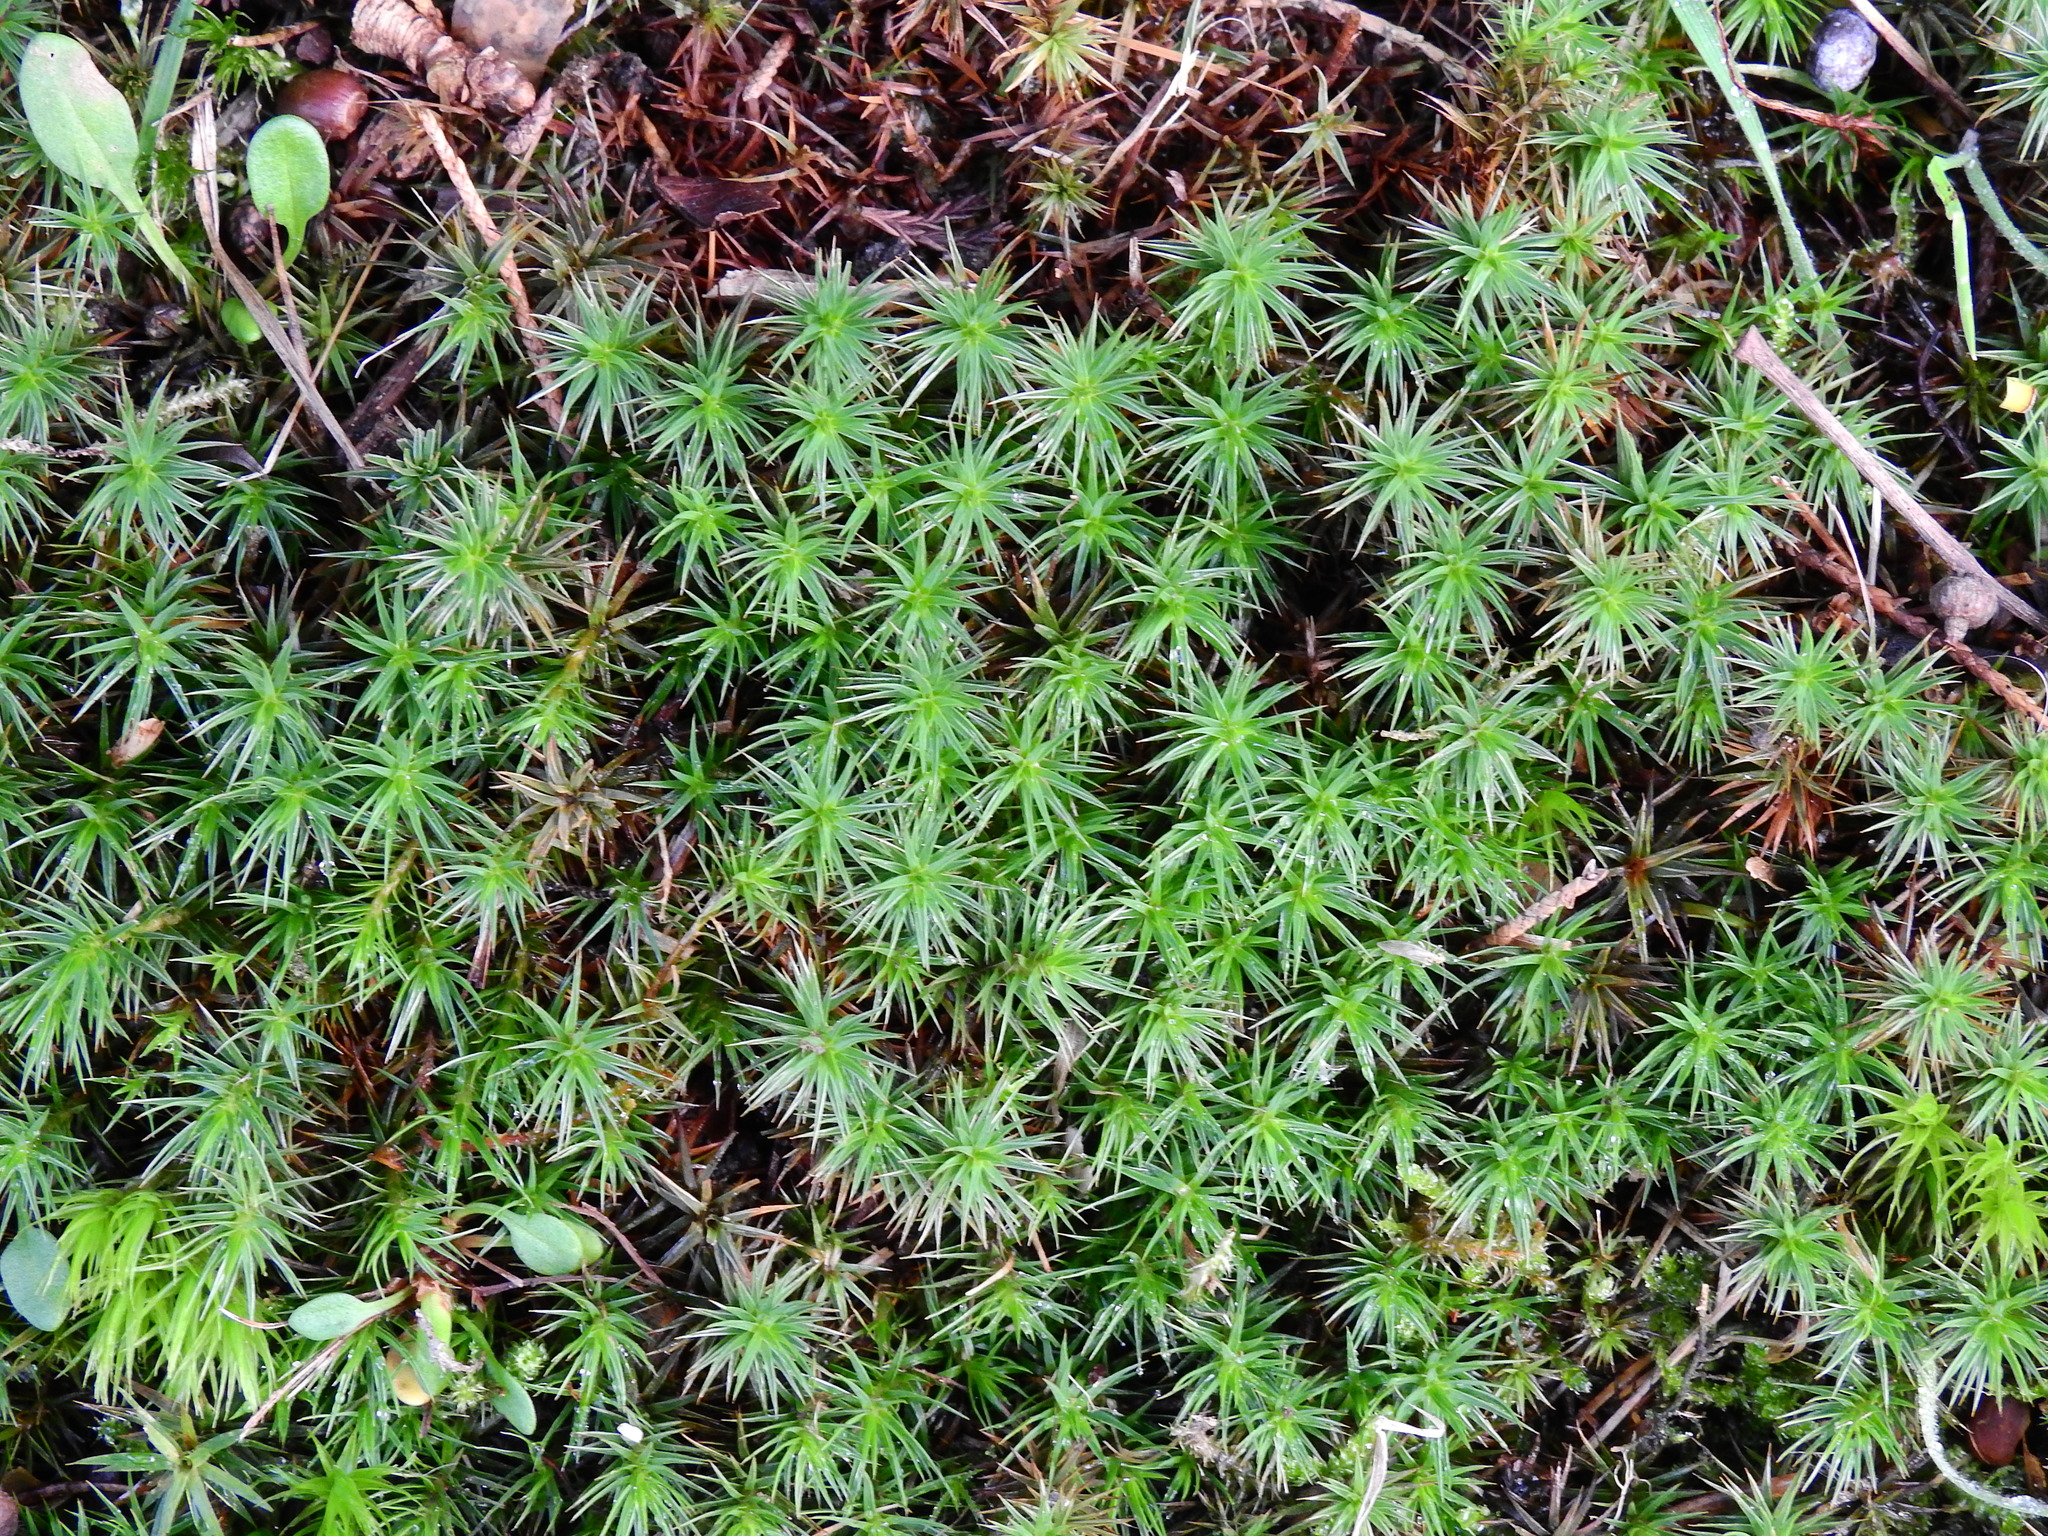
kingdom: Plantae
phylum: Bryophyta
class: Polytrichopsida
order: Polytrichales
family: Polytrichaceae
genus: Polytrichum
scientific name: Polytrichum juniperinum
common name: Juniper haircap moss
